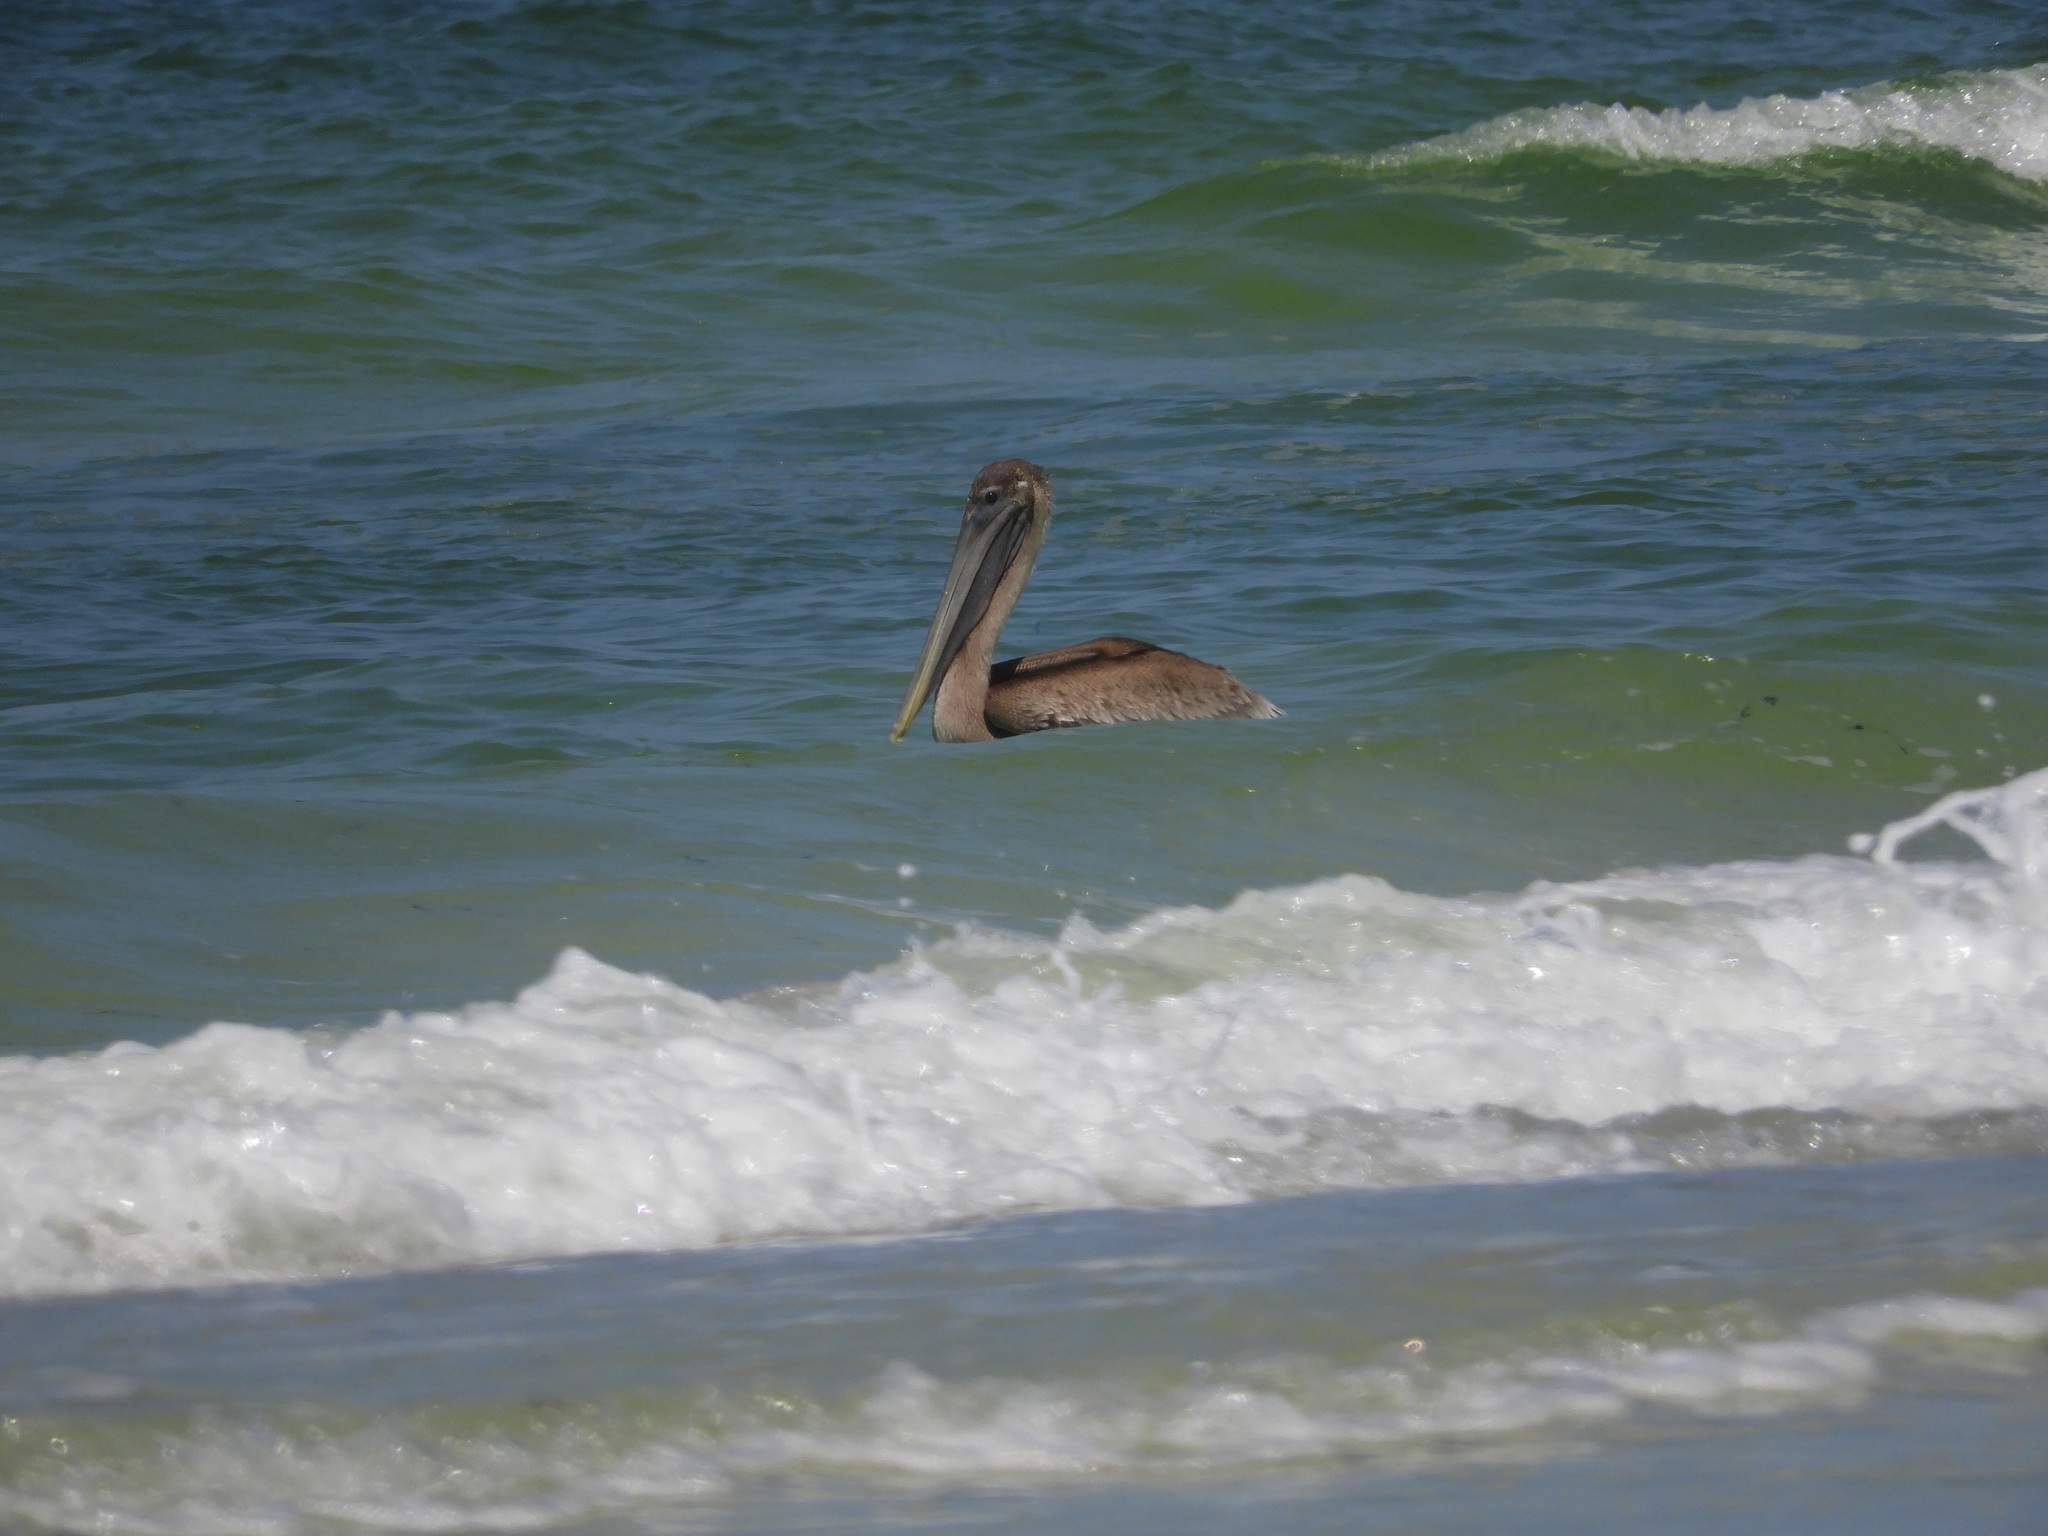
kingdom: Animalia
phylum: Chordata
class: Aves
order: Pelecaniformes
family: Pelecanidae
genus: Pelecanus
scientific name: Pelecanus occidentalis
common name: Brown pelican
